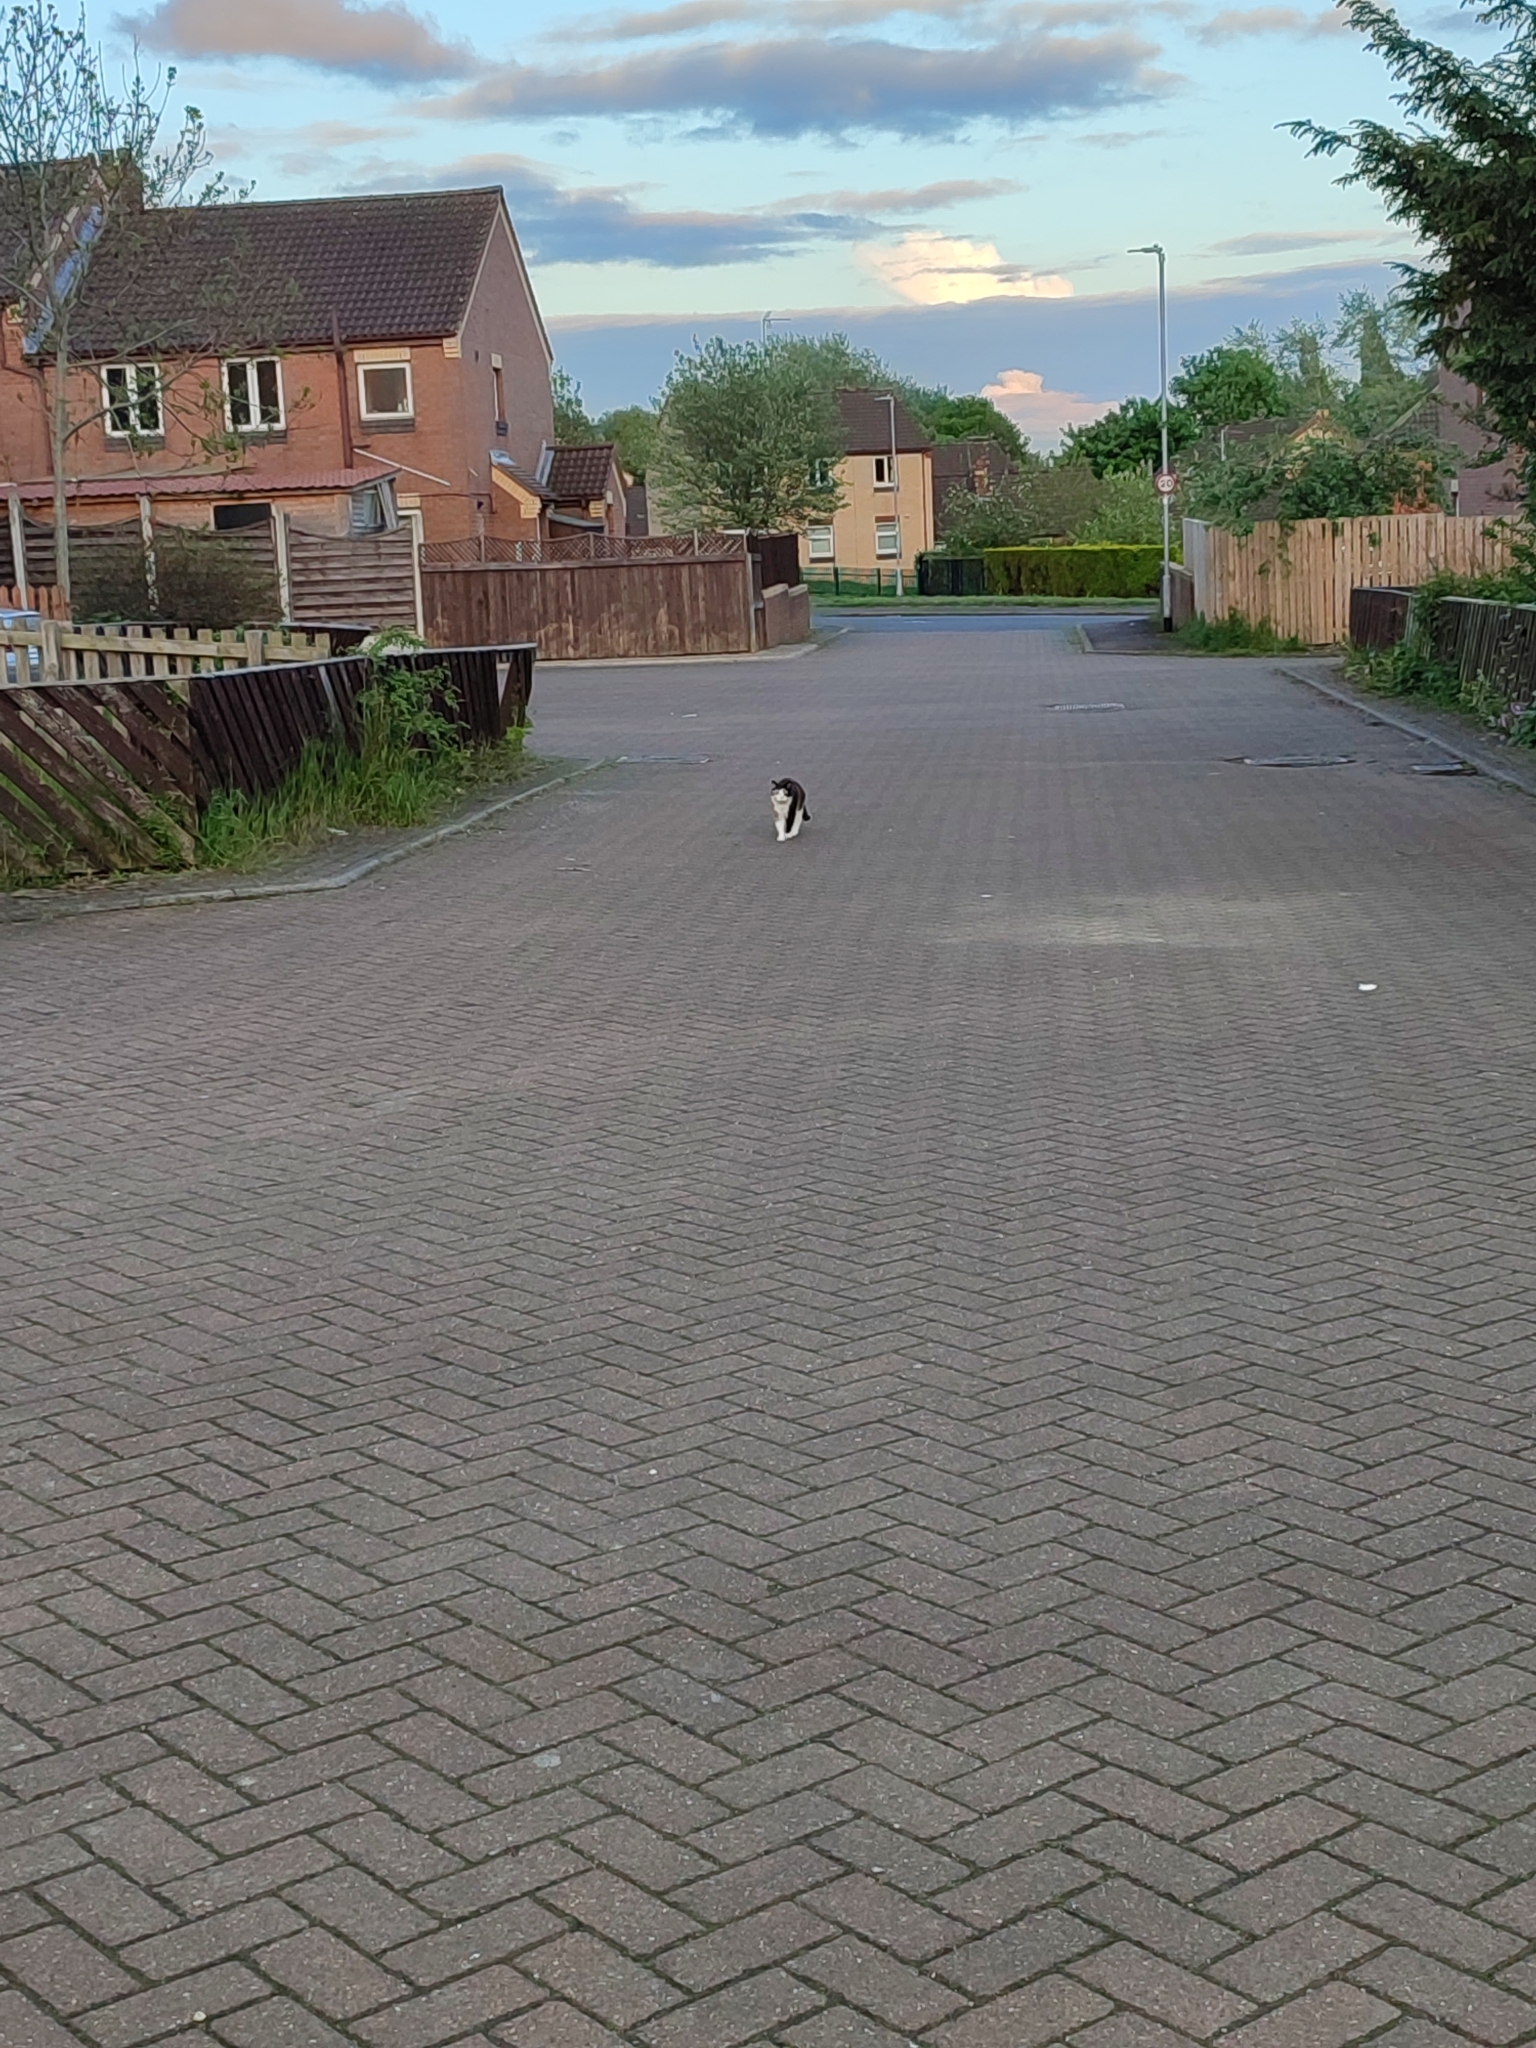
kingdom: Animalia
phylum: Chordata
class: Mammalia
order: Carnivora
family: Felidae
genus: Felis
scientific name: Felis catus
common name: Domestic cat
